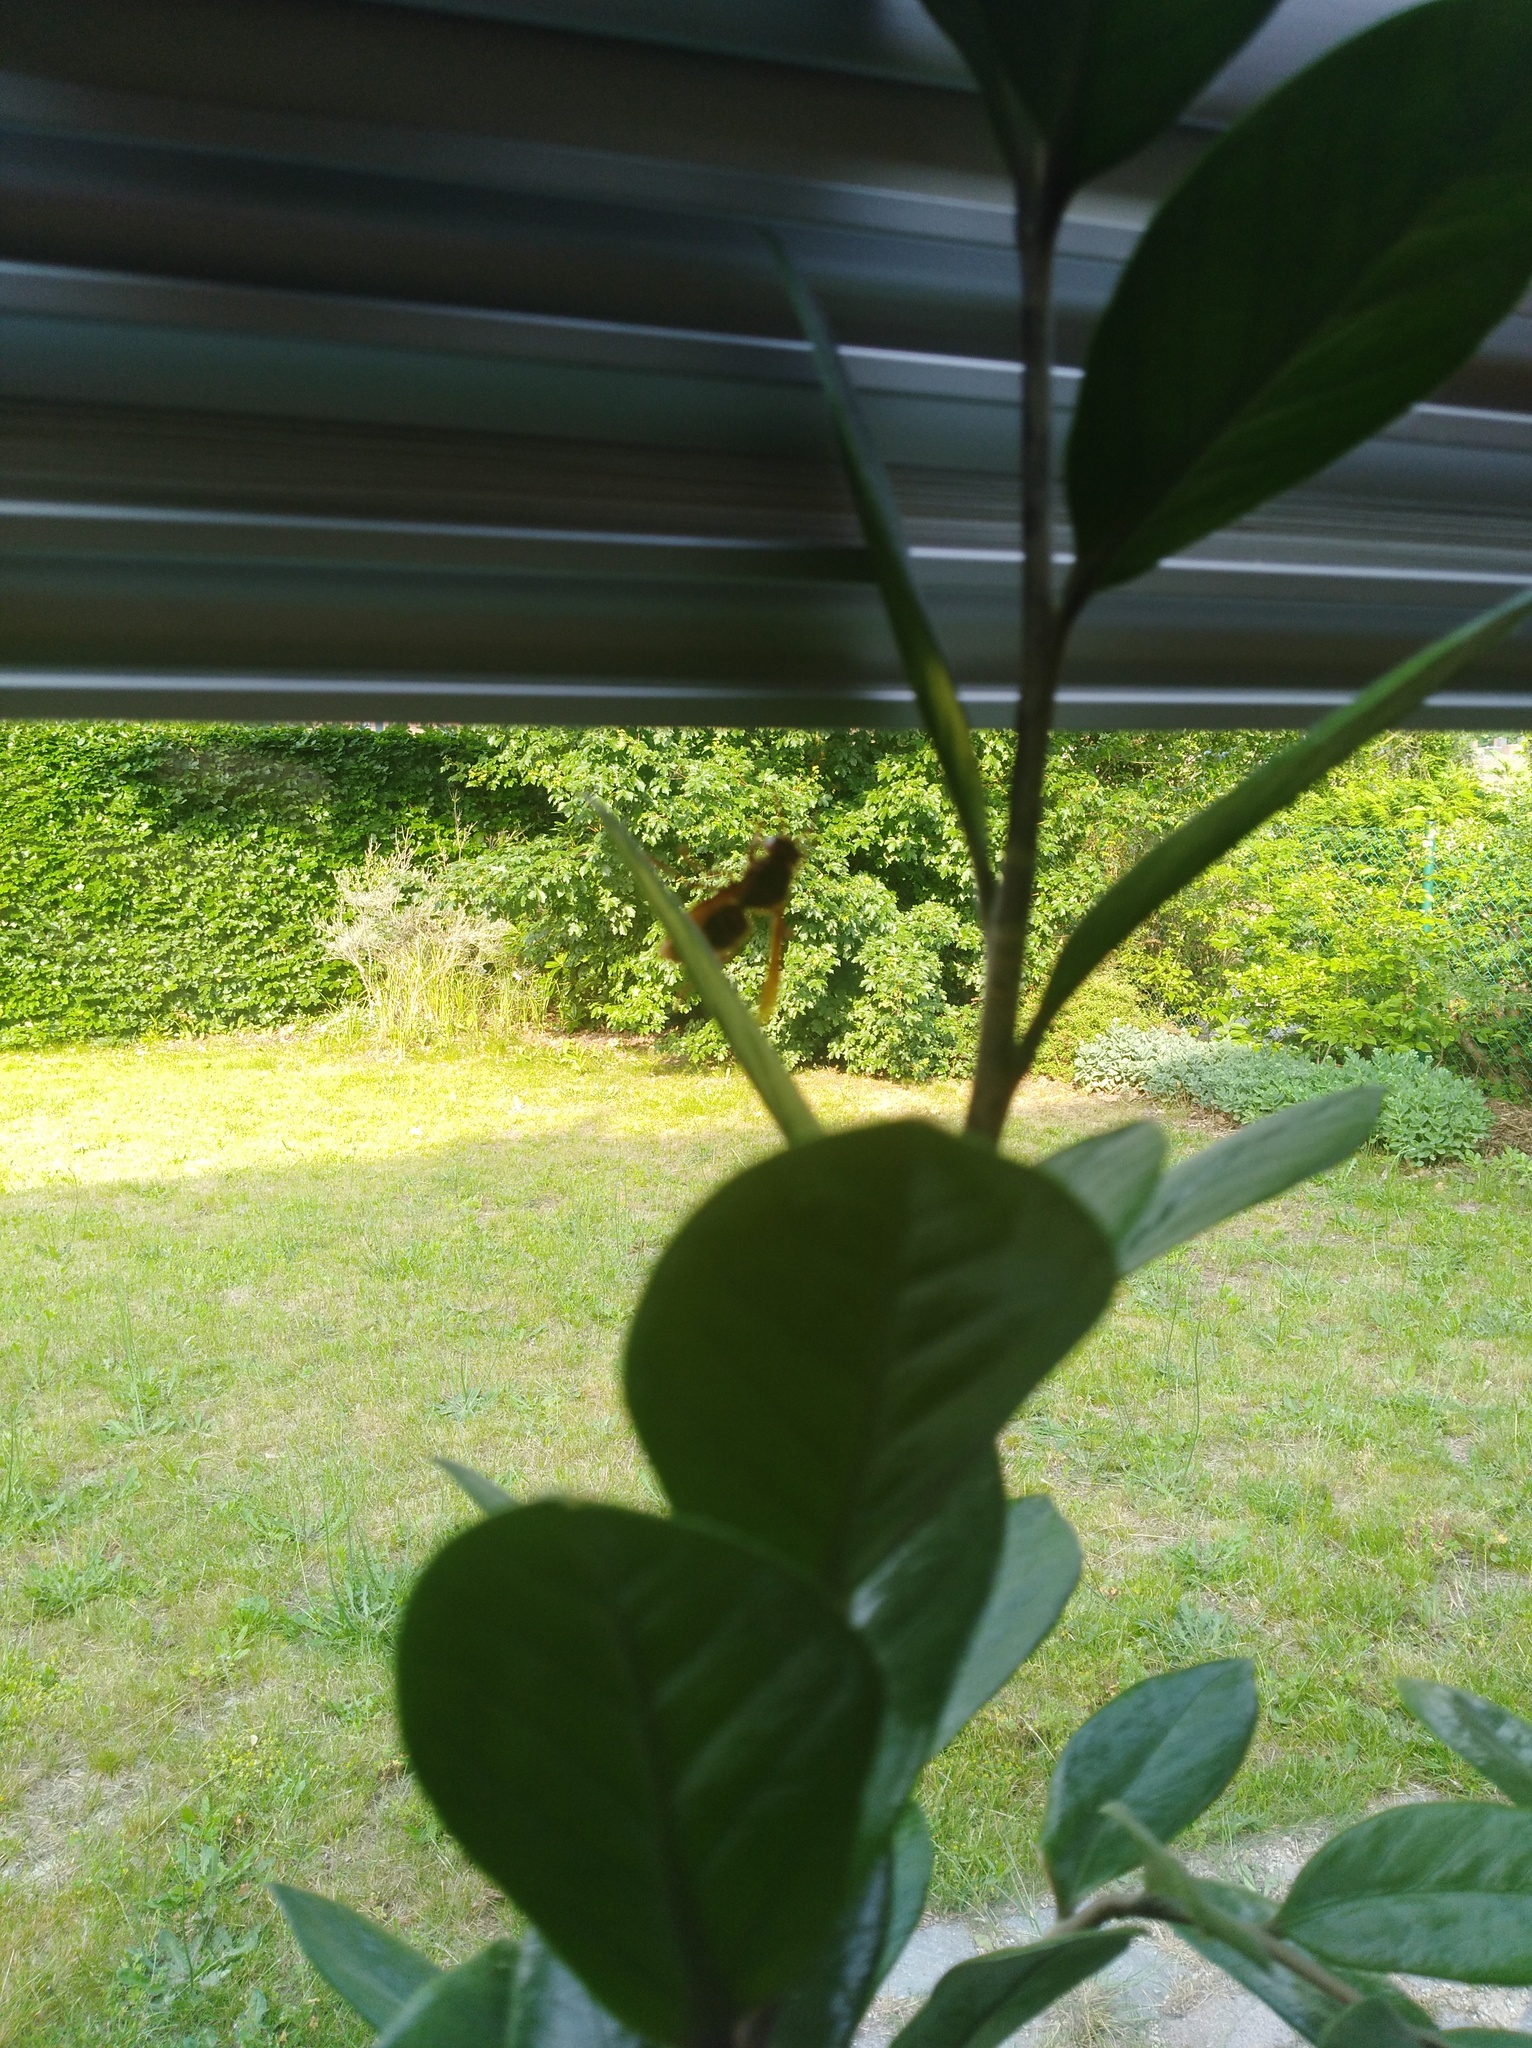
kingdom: Animalia
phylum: Arthropoda
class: Insecta
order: Hymenoptera
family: Vespidae
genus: Vespa
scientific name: Vespa crabro
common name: Hornet
